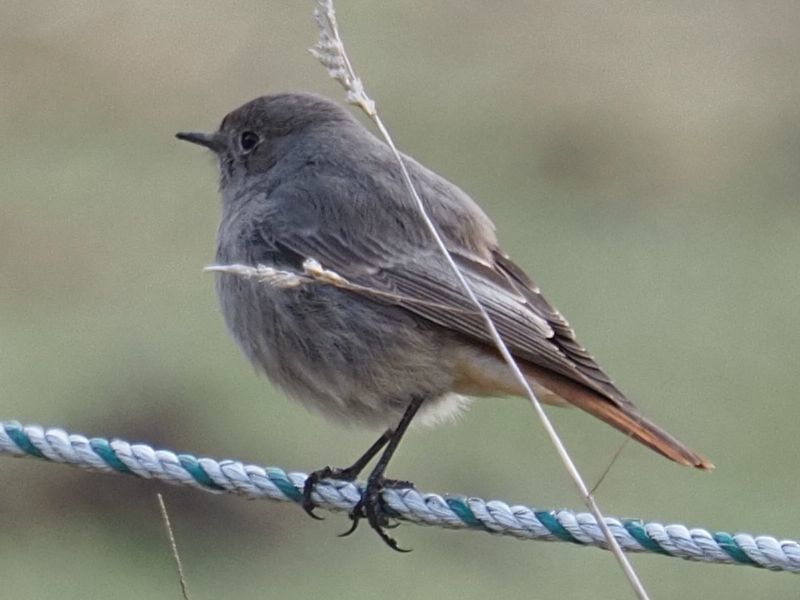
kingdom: Animalia
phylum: Chordata
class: Aves
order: Passeriformes
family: Muscicapidae
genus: Phoenicurus
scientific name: Phoenicurus ochruros
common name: Black redstart
